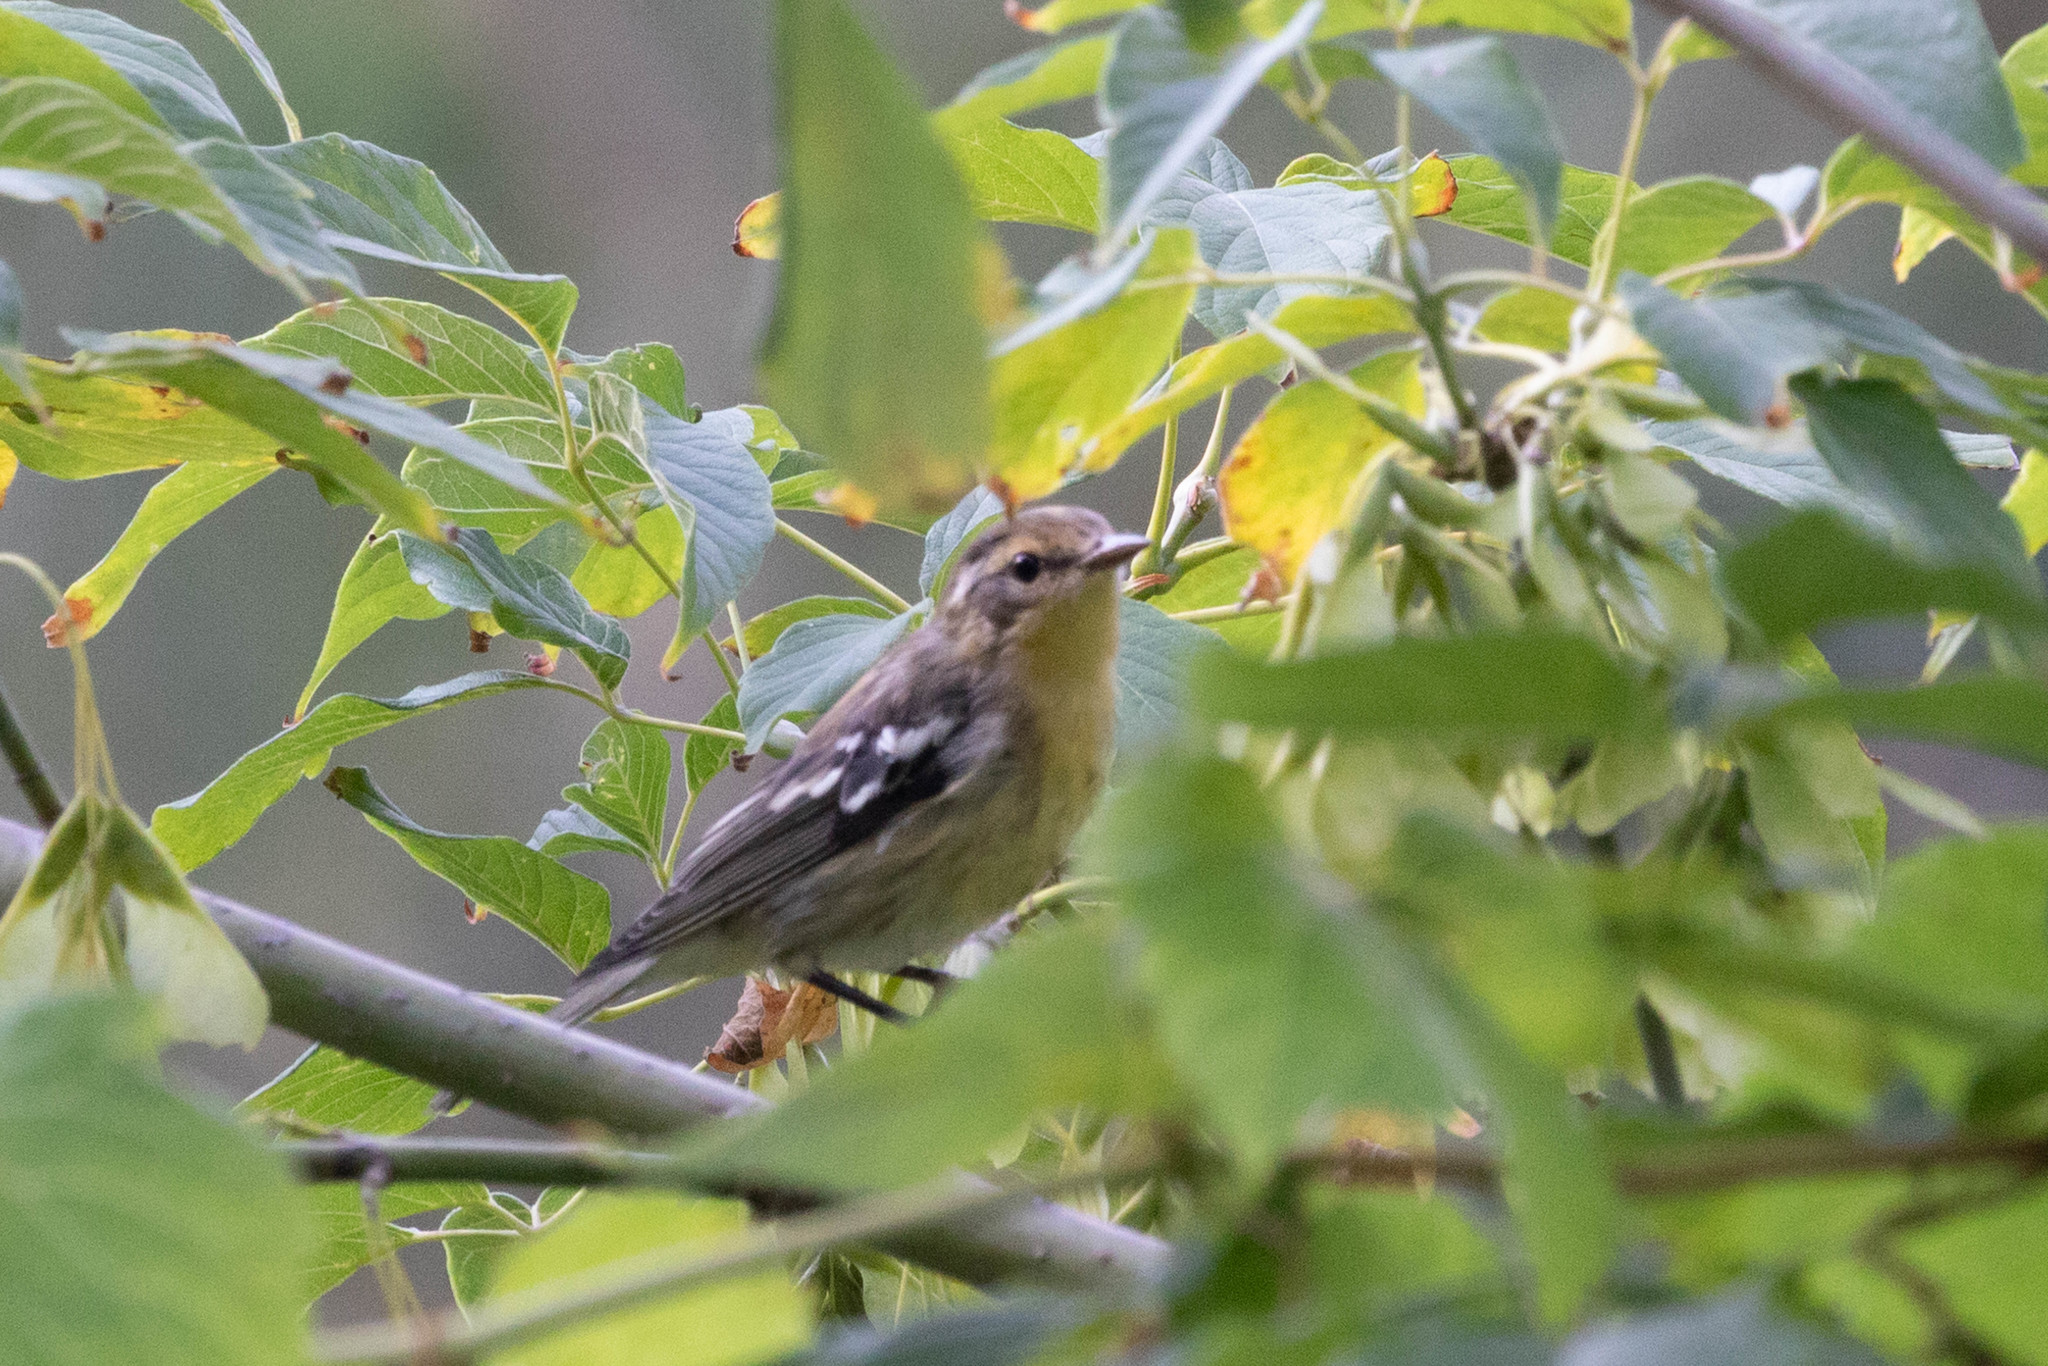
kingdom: Animalia
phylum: Chordata
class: Aves
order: Passeriformes
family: Parulidae
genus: Setophaga
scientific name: Setophaga fusca
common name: Blackburnian warbler
